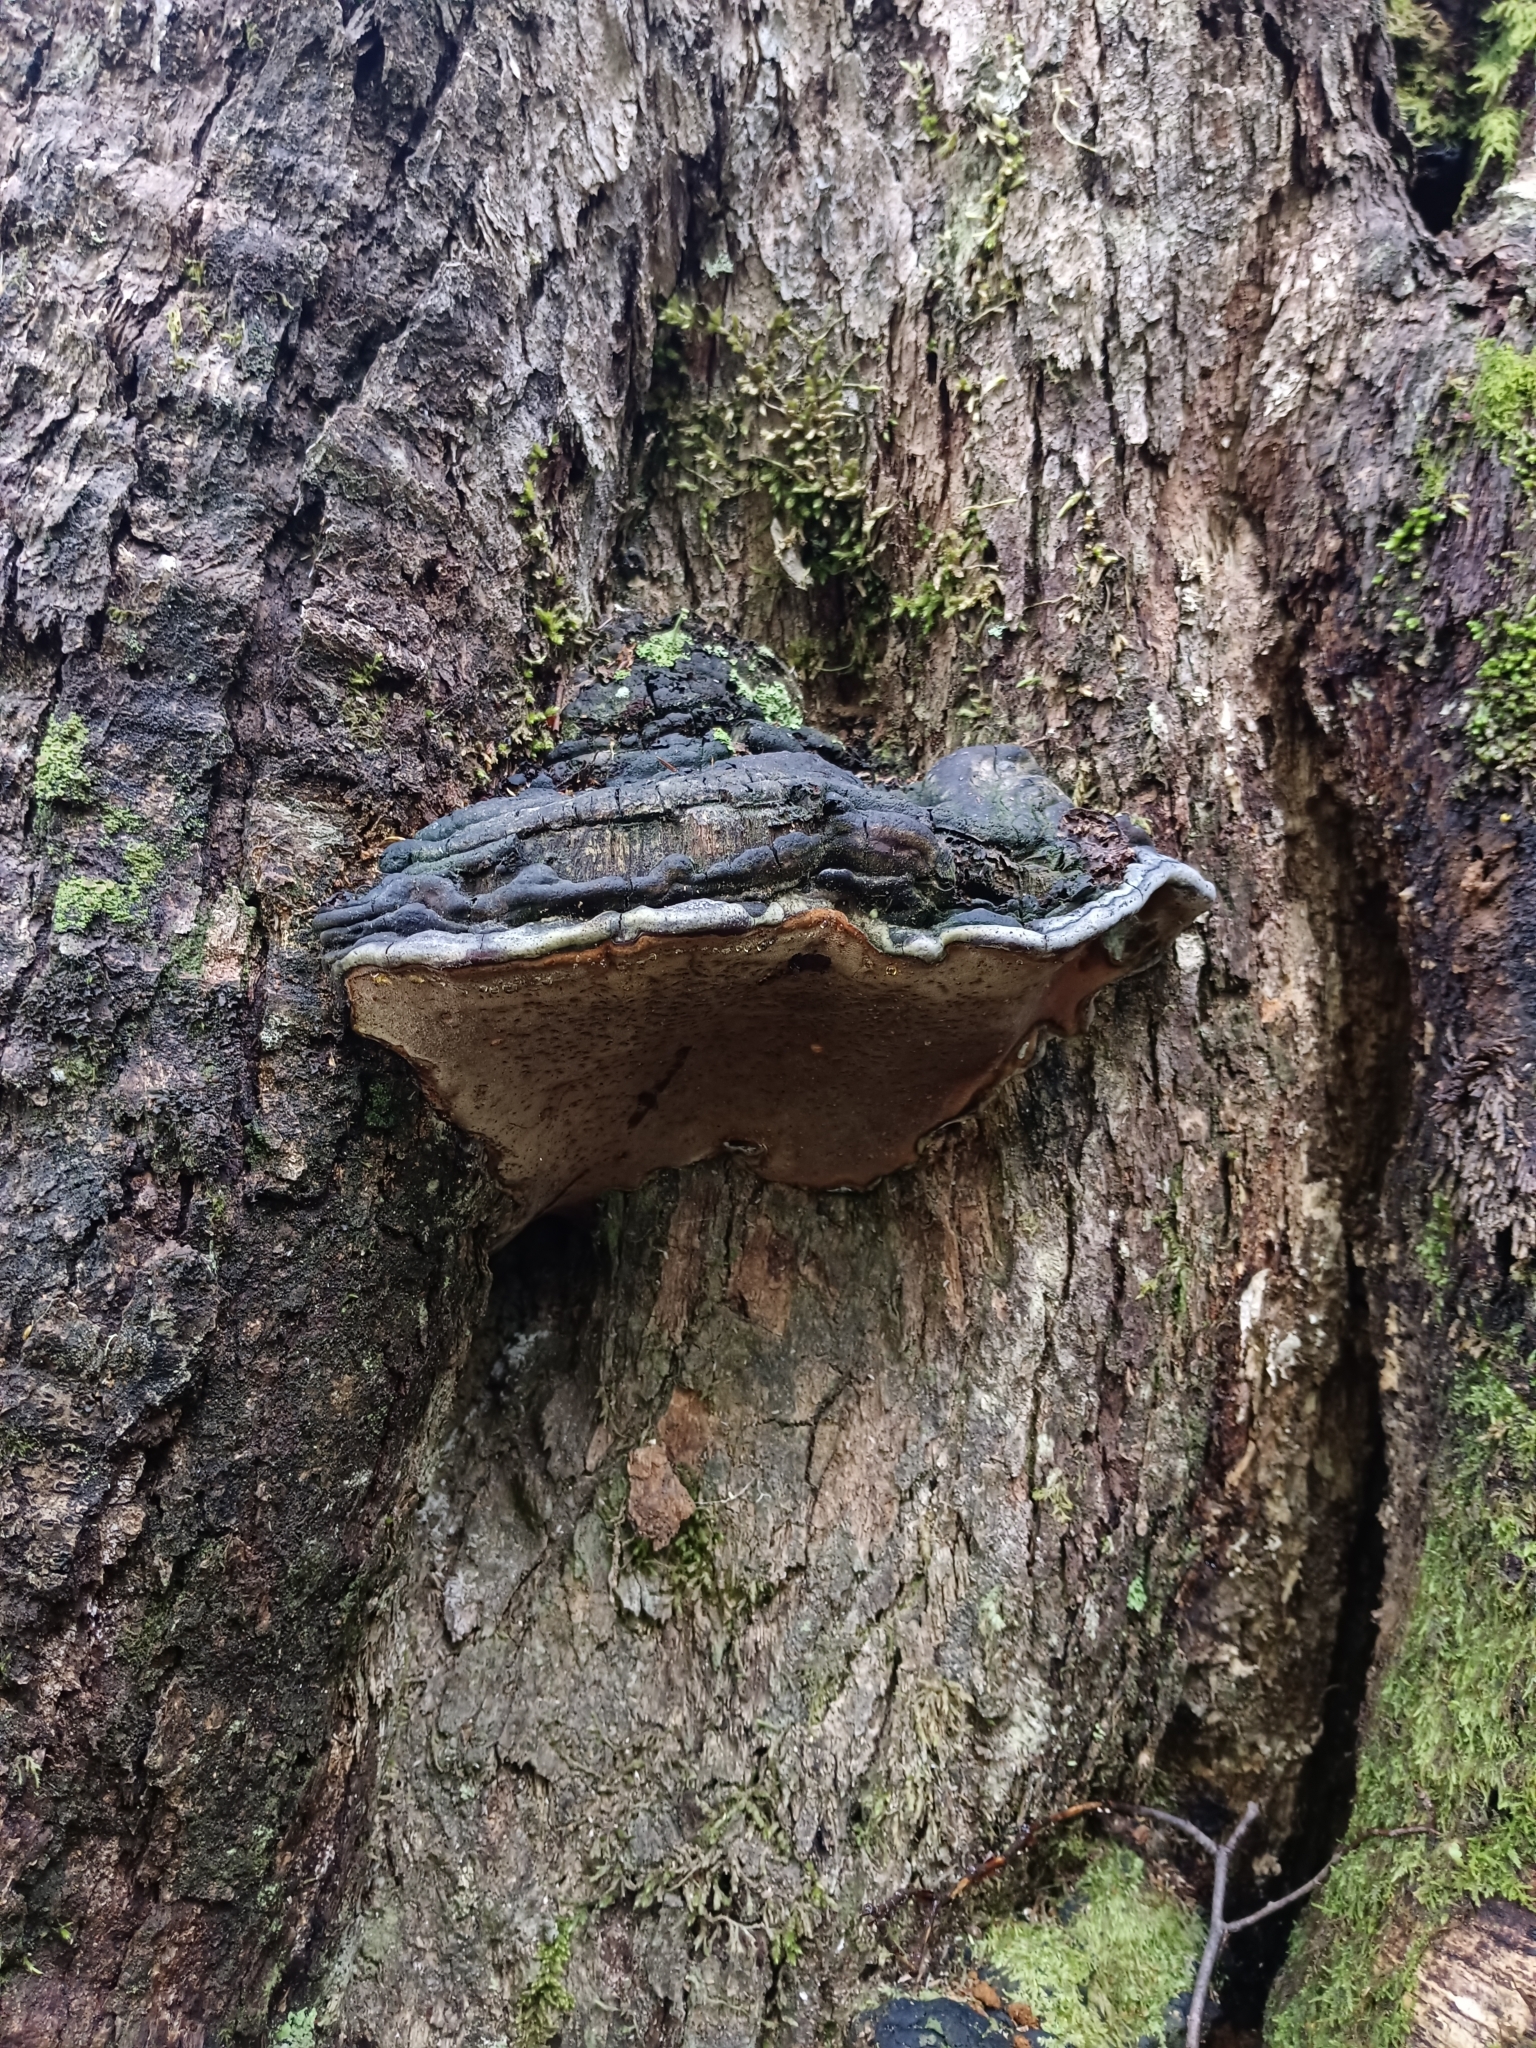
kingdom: Fungi
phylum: Basidiomycota
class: Agaricomycetes
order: Hymenochaetales
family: Hymenochaetaceae
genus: Nothophellinus
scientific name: Nothophellinus andinopatagonicus
